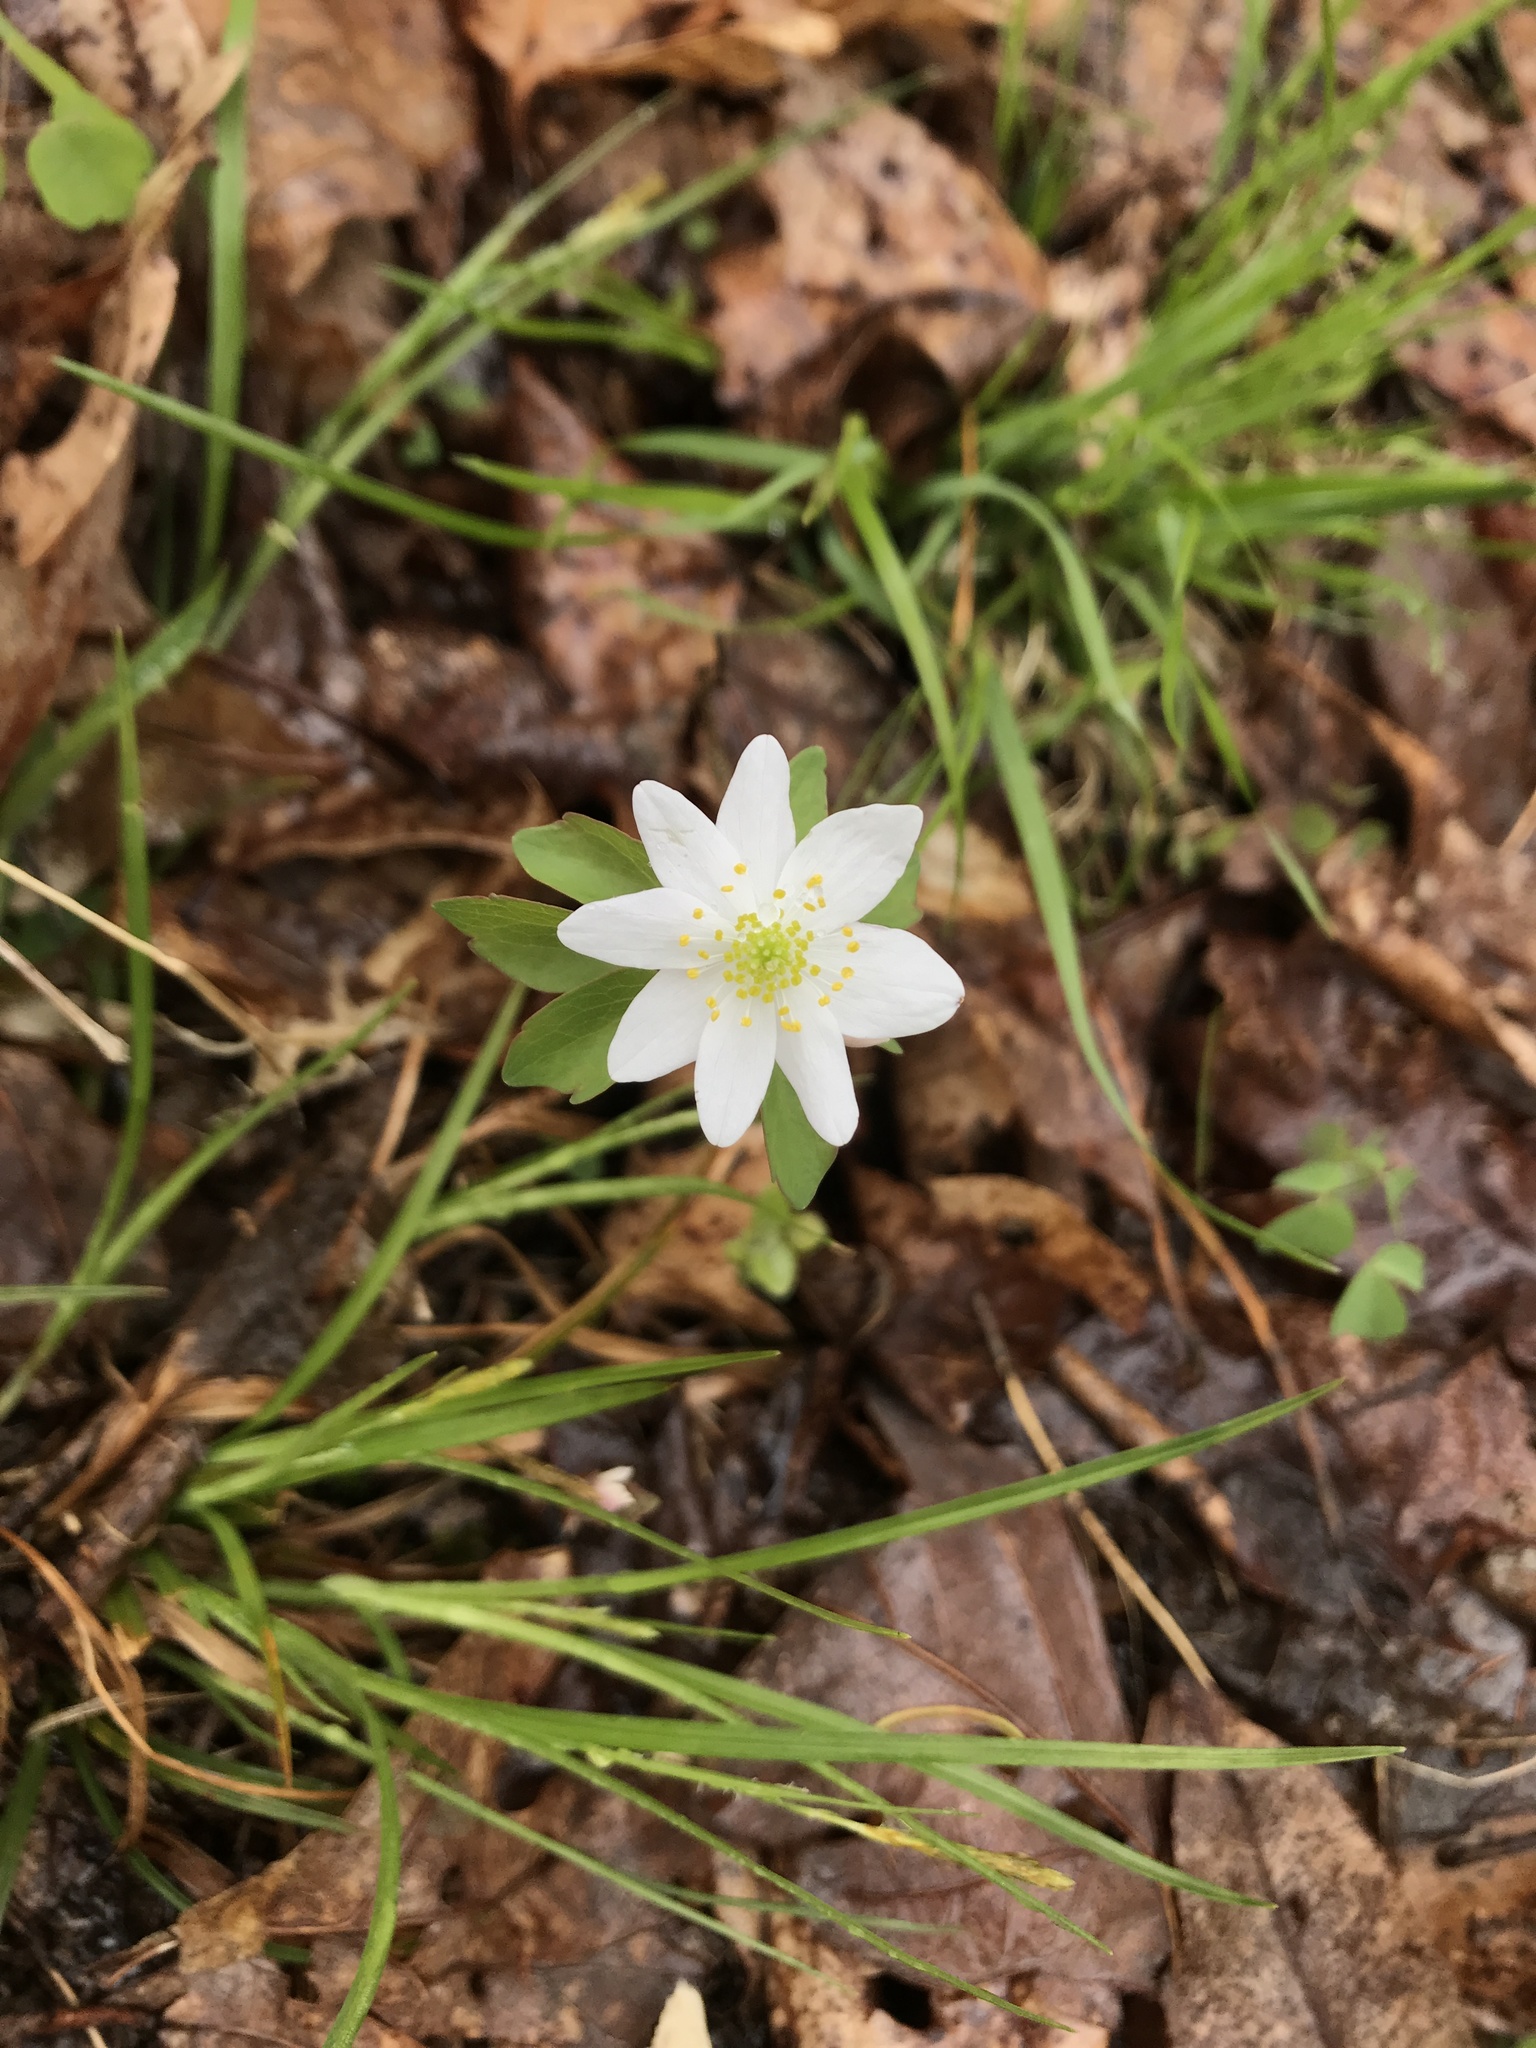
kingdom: Plantae
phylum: Tracheophyta
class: Magnoliopsida
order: Ranunculales
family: Ranunculaceae
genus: Thalictrum
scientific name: Thalictrum thalictroides
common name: Rue-anemone
